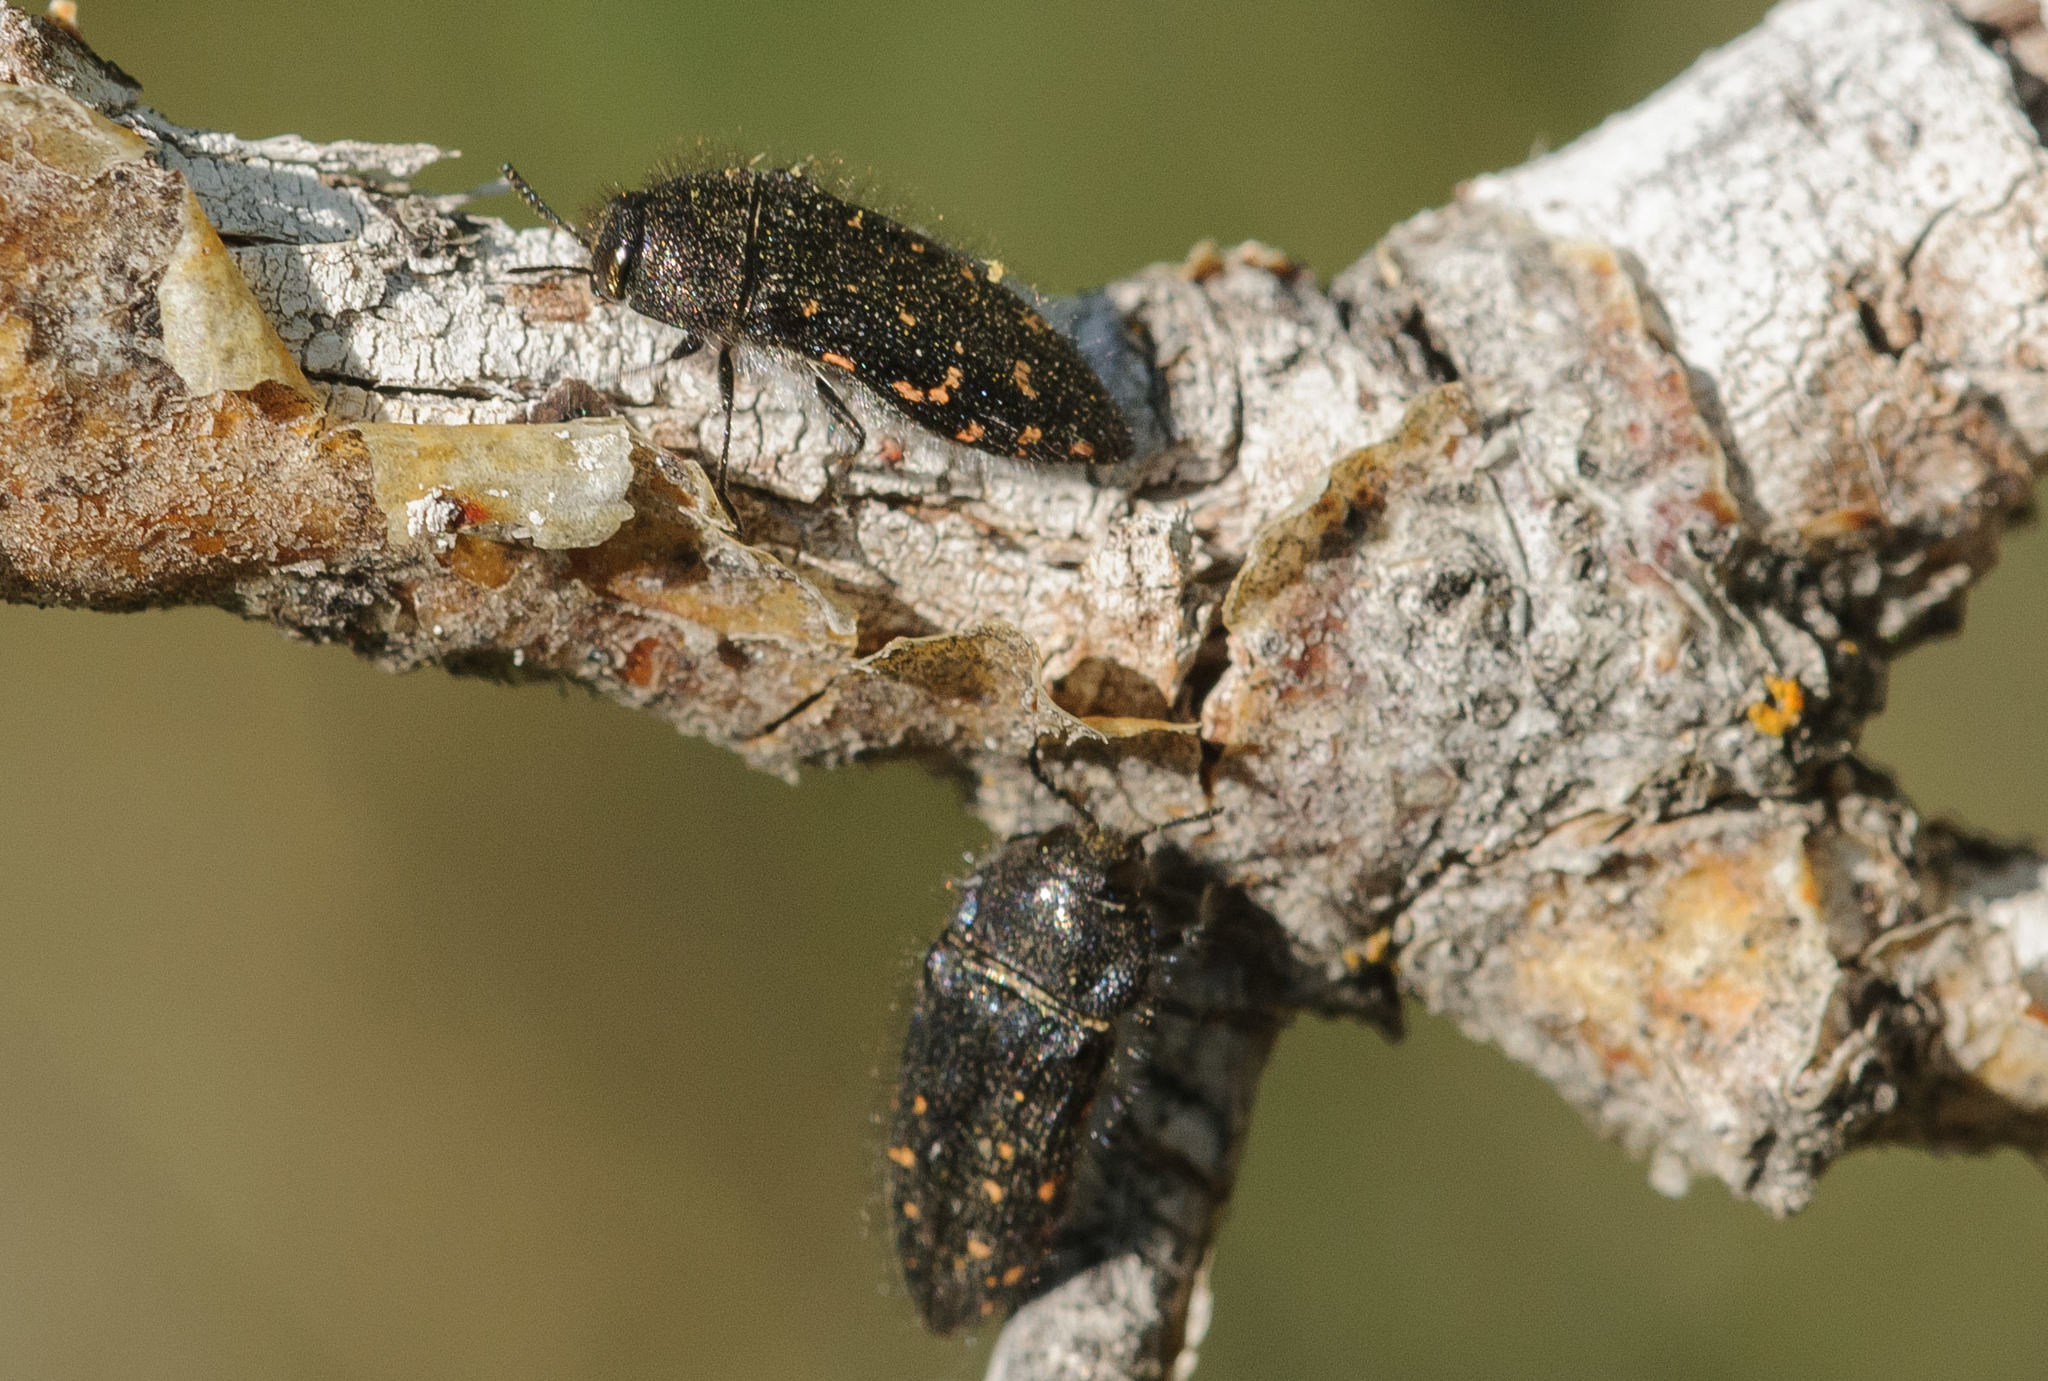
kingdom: Animalia
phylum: Arthropoda
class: Insecta
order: Coleoptera
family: Buprestidae
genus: Acmaeodera
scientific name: Acmaeodera knowltoni
